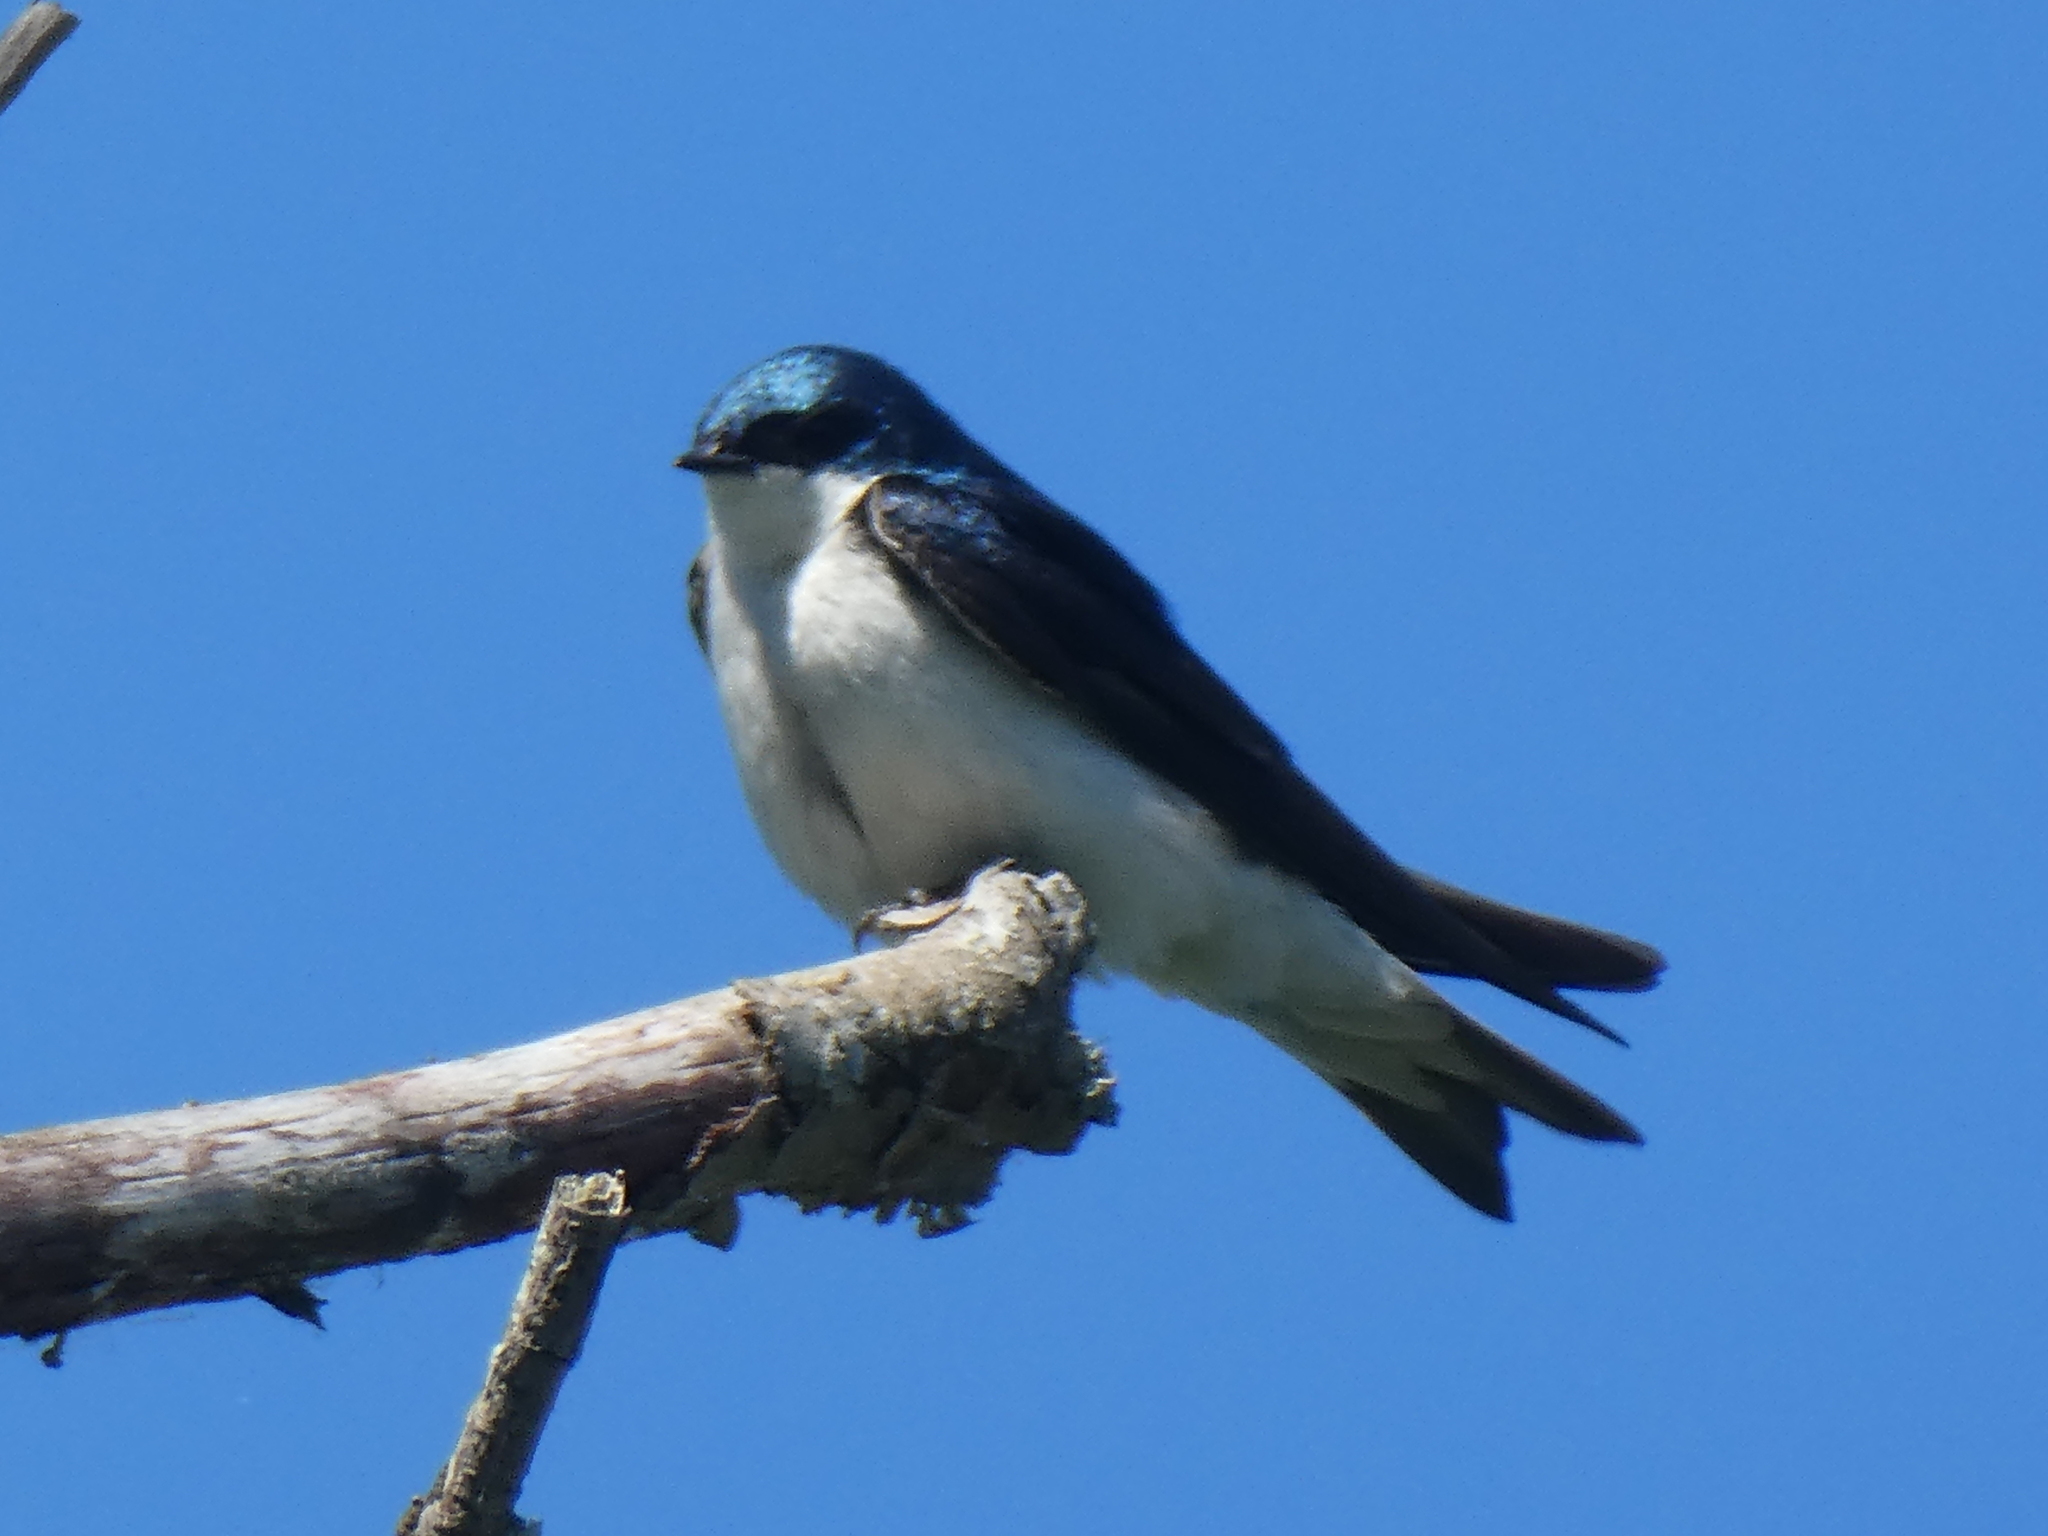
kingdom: Animalia
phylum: Chordata
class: Aves
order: Passeriformes
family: Hirundinidae
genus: Tachycineta
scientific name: Tachycineta bicolor
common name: Tree swallow
